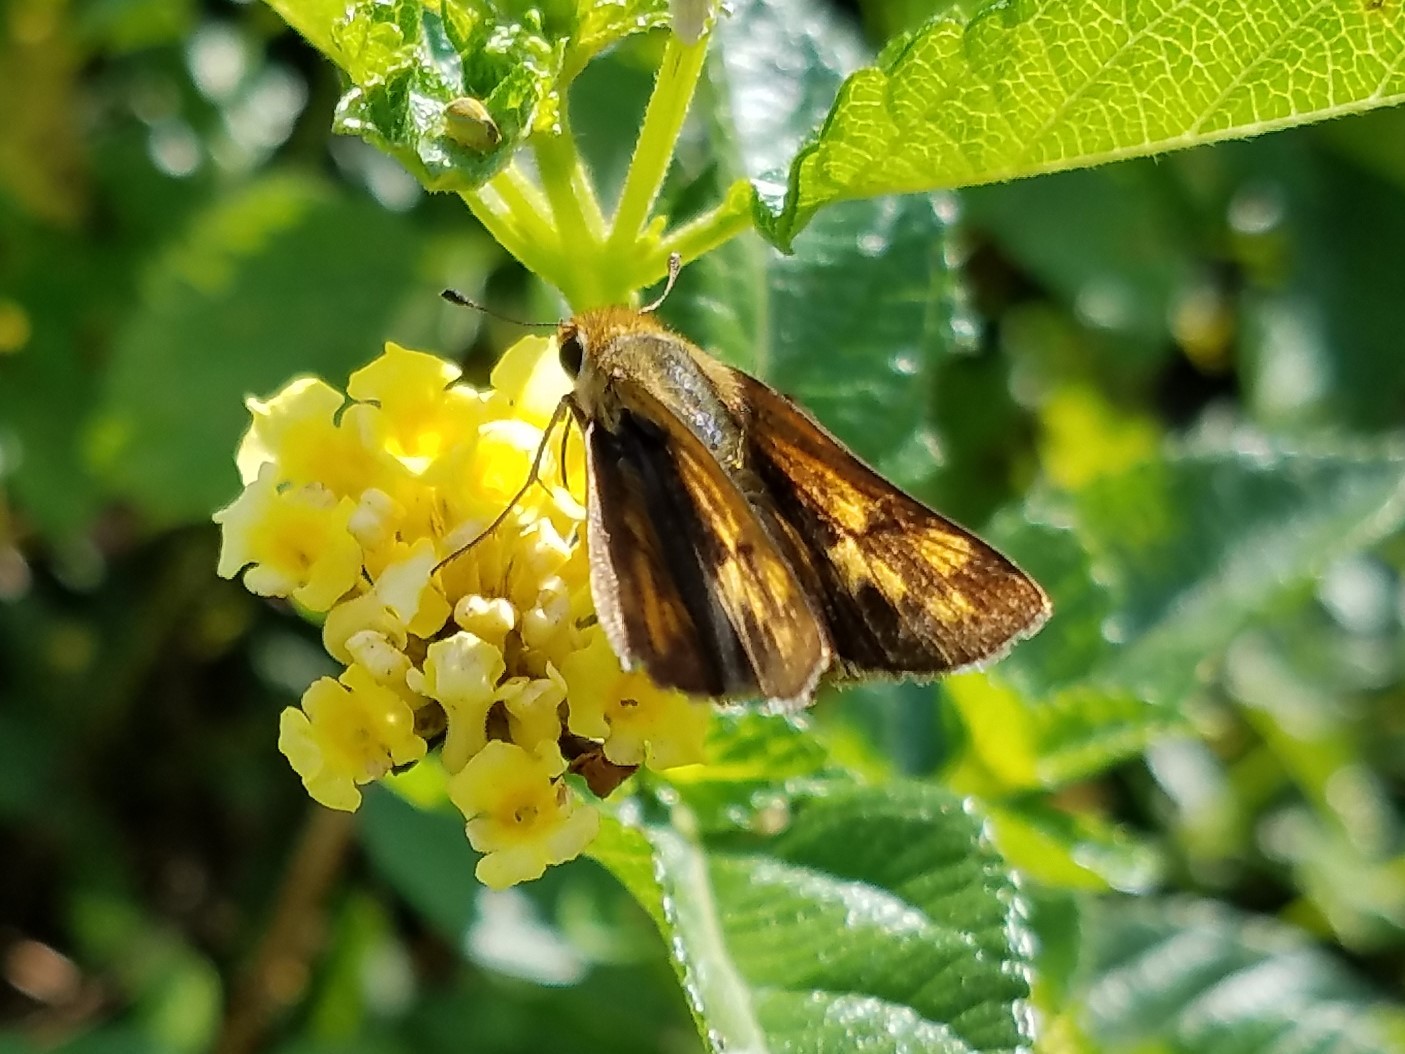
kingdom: Animalia
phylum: Arthropoda
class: Insecta
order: Lepidoptera
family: Hesperiidae
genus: Hylephila
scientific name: Hylephila phyleus
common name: Fiery skipper
